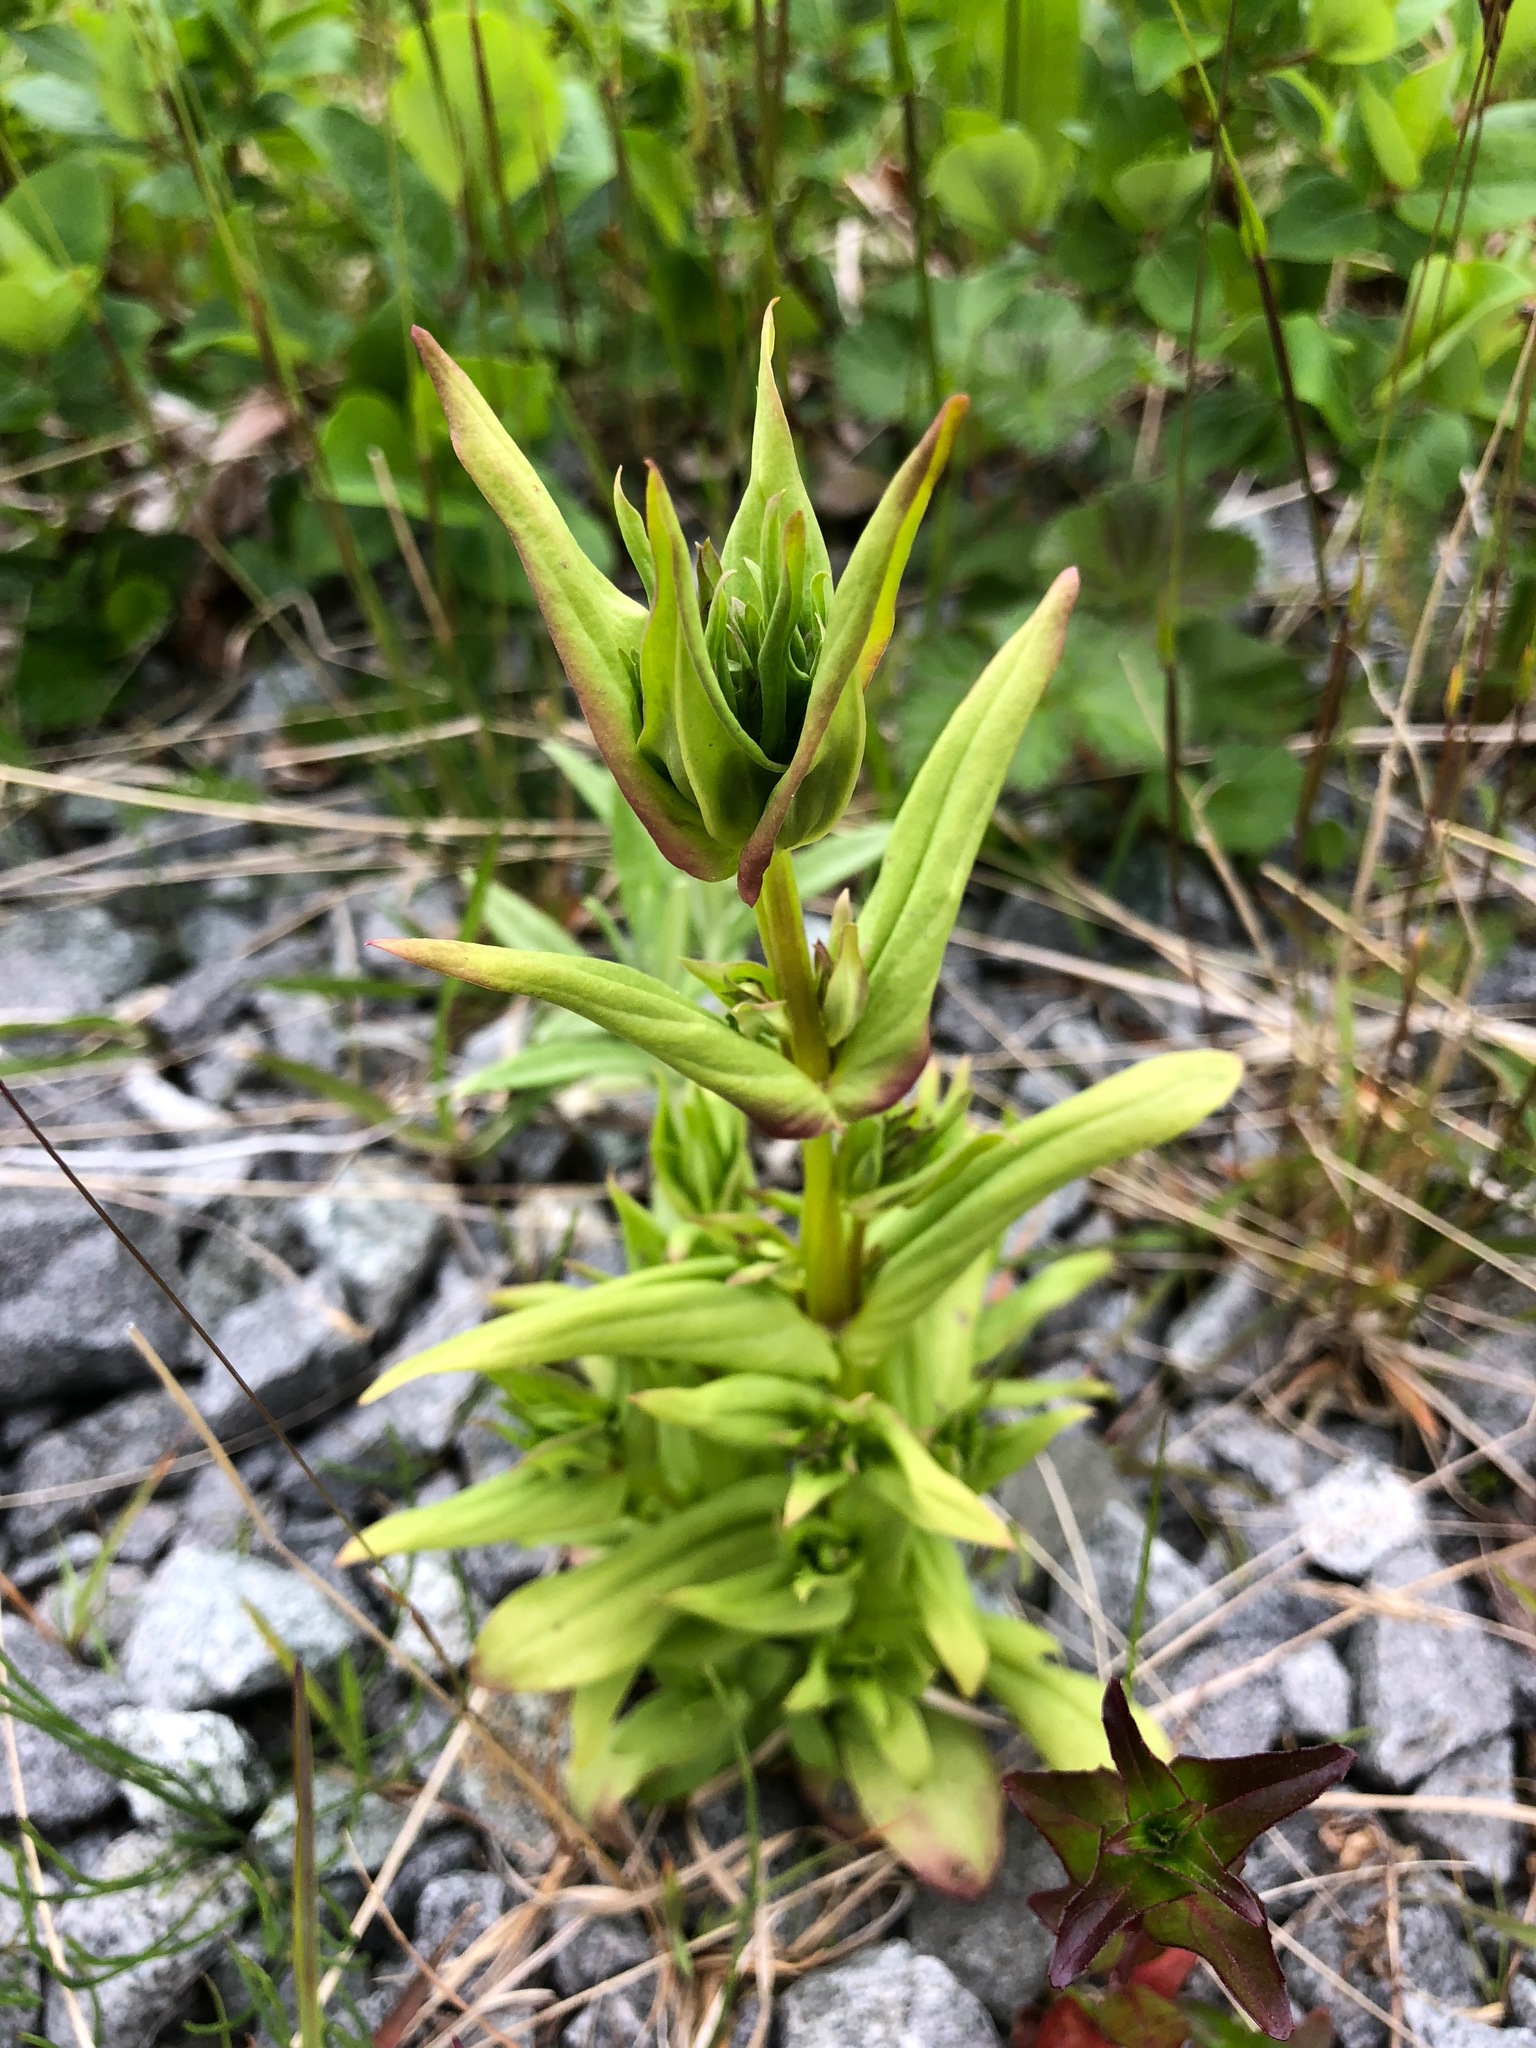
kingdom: Plantae
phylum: Tracheophyta
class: Magnoliopsida
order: Gentianales
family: Gentianaceae
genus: Gentianella
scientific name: Gentianella amarella
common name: Autumn gentian
